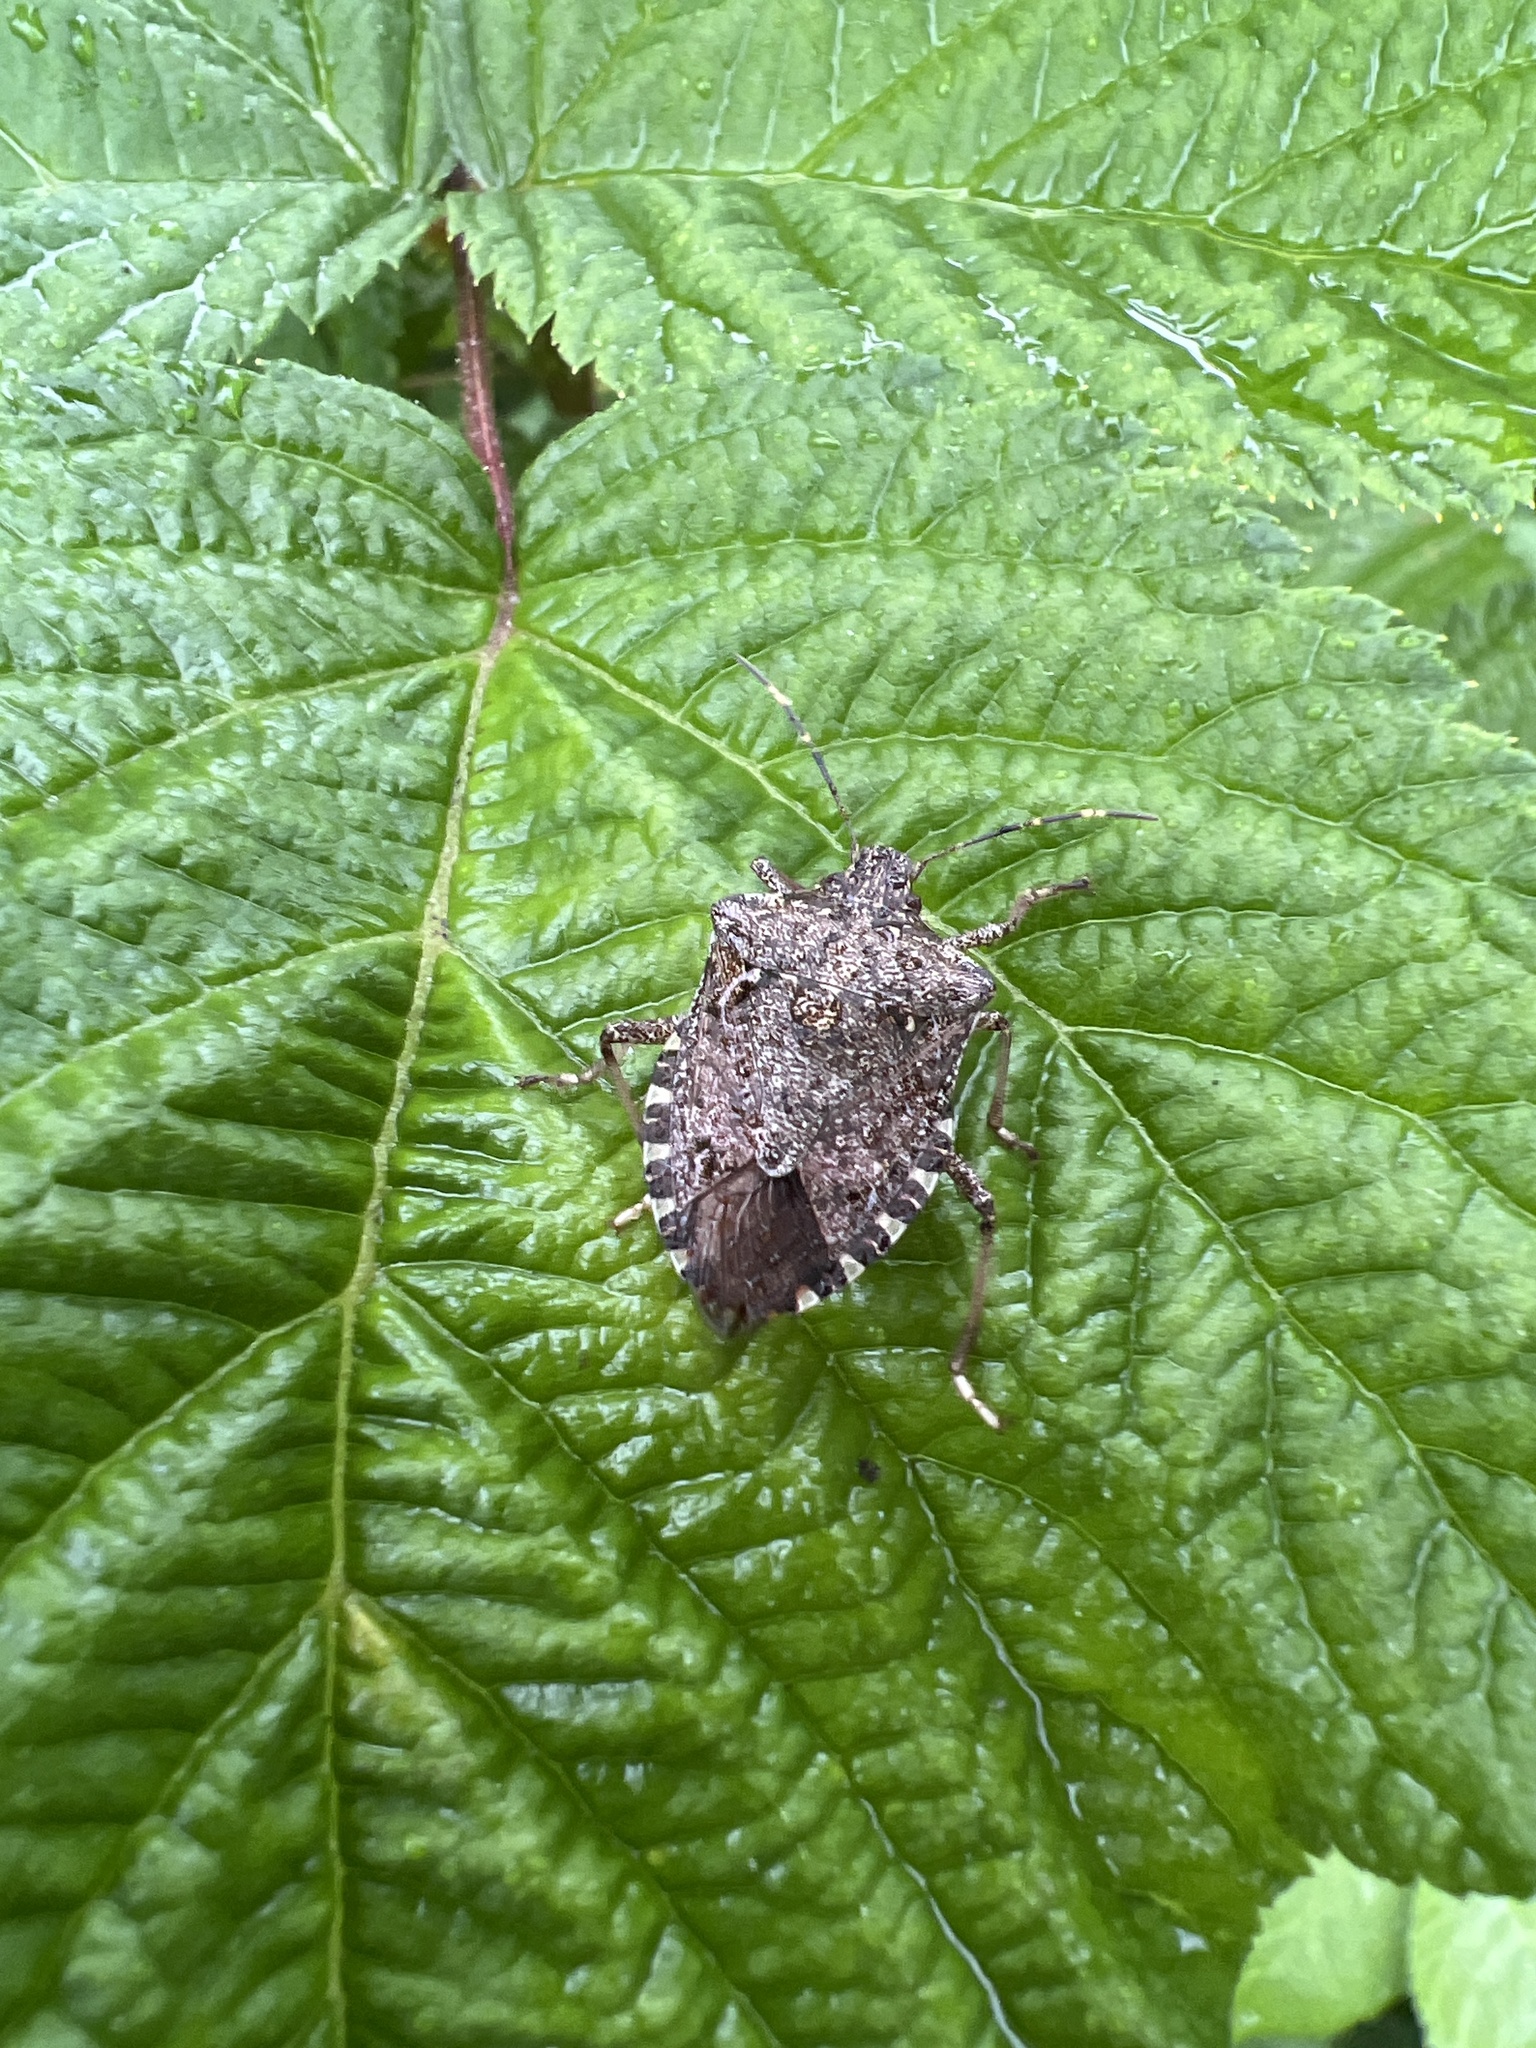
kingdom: Animalia
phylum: Arthropoda
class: Insecta
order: Hemiptera
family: Pentatomidae
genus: Halyomorpha
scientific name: Halyomorpha halys
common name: Brown marmorated stink bug
